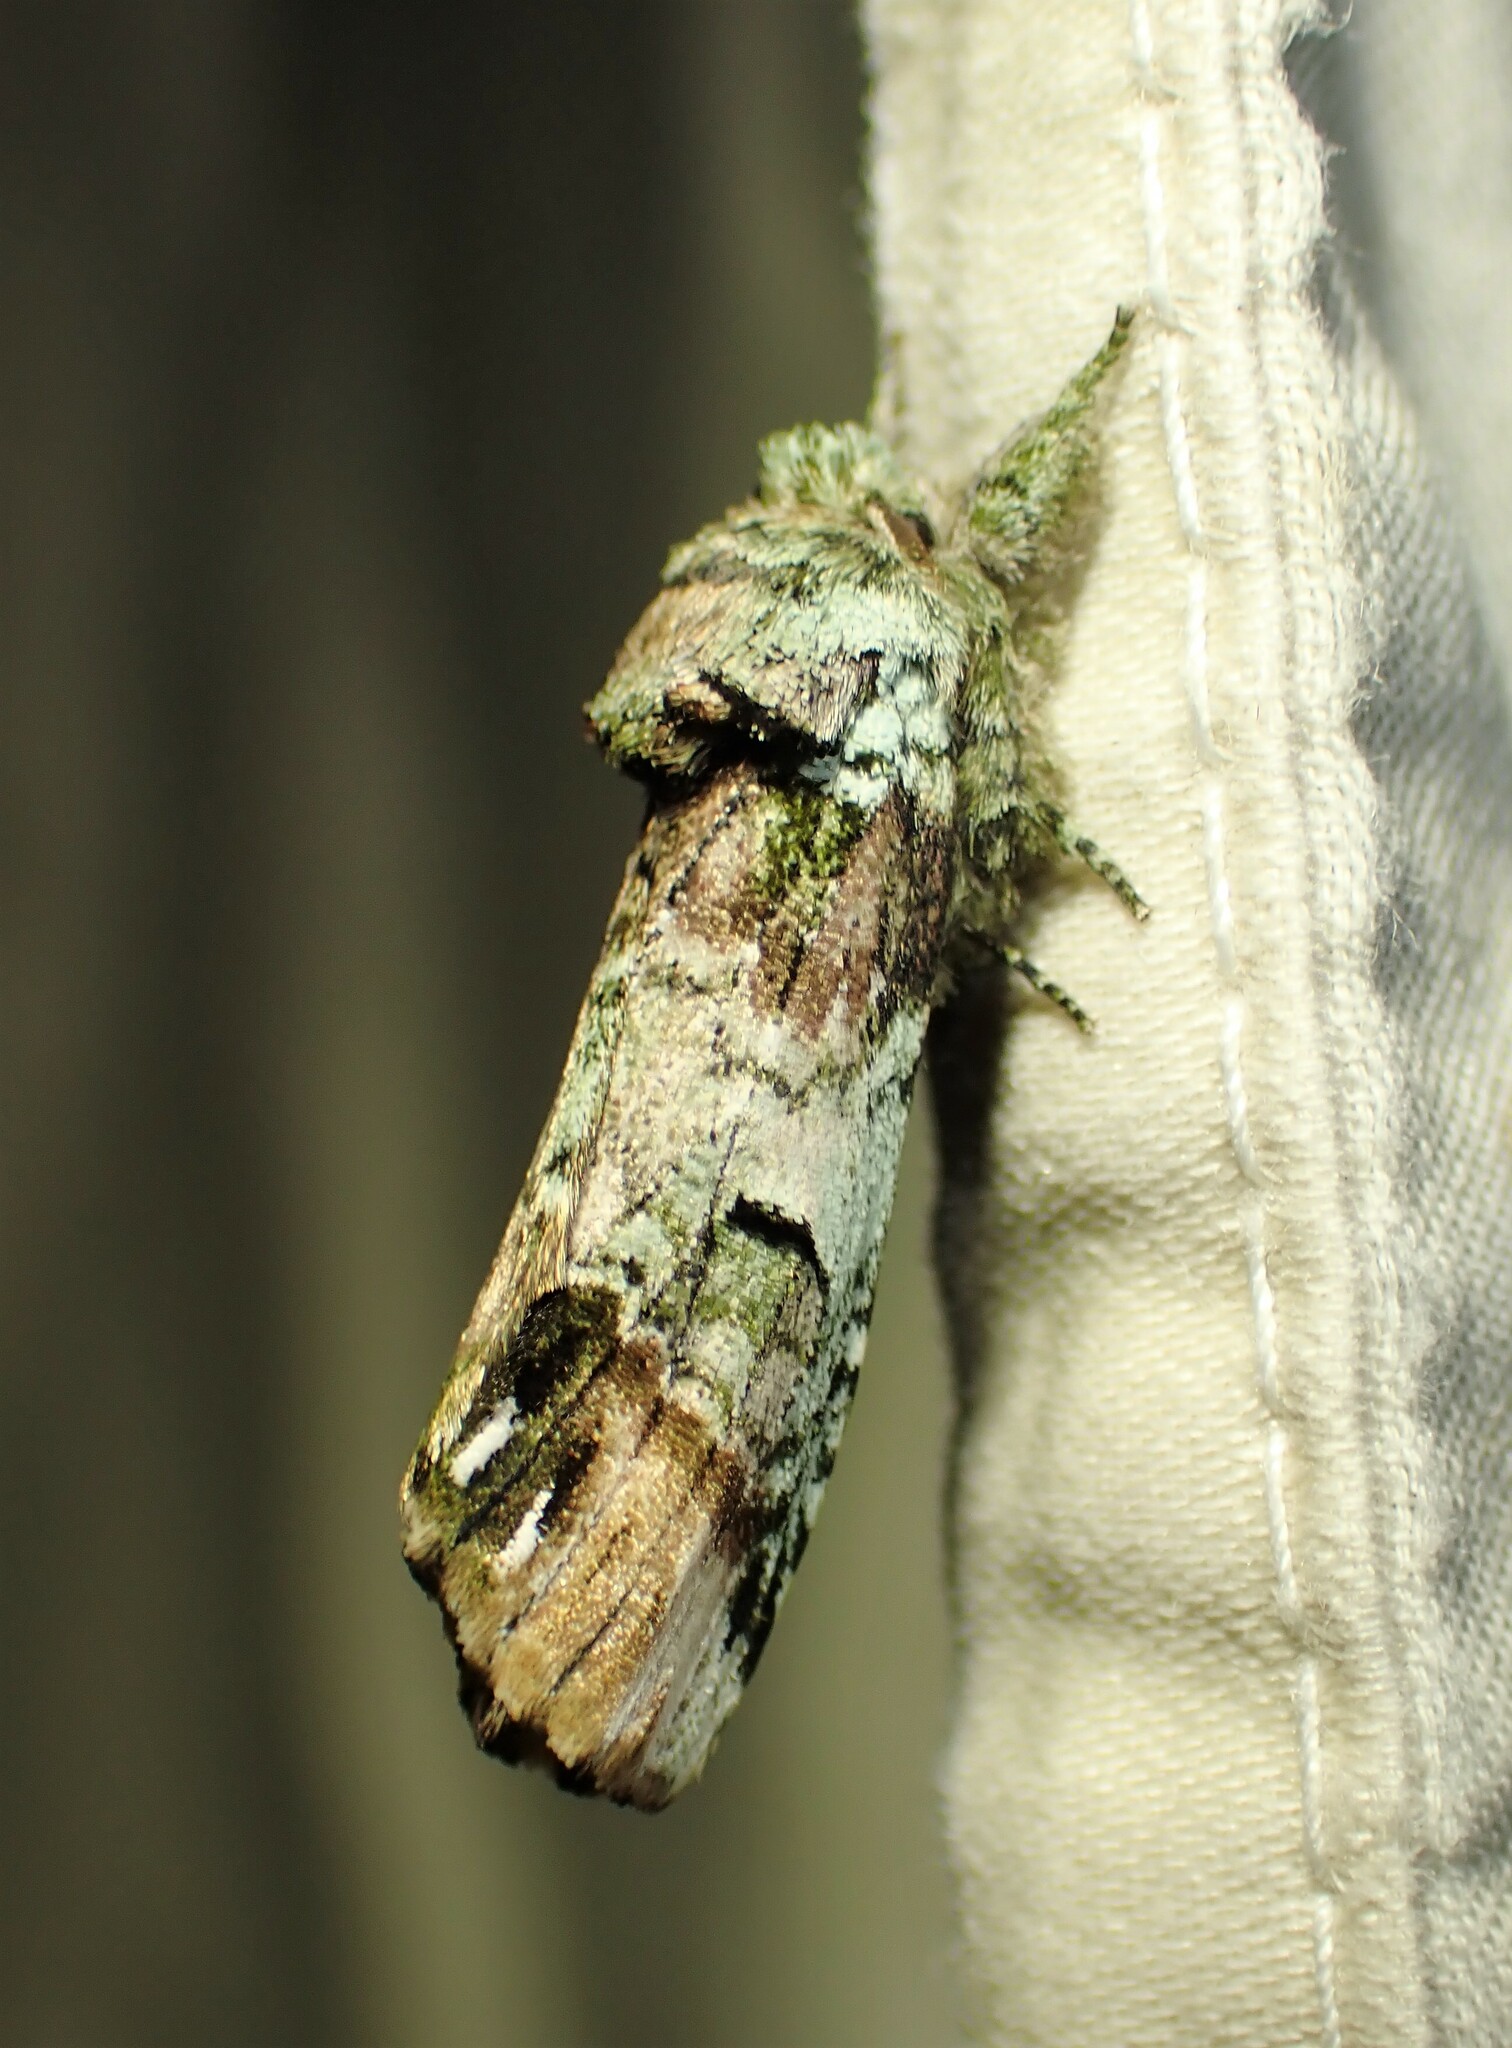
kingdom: Animalia
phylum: Arthropoda
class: Insecta
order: Lepidoptera
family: Notodontidae
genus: Schizura
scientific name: Schizura
